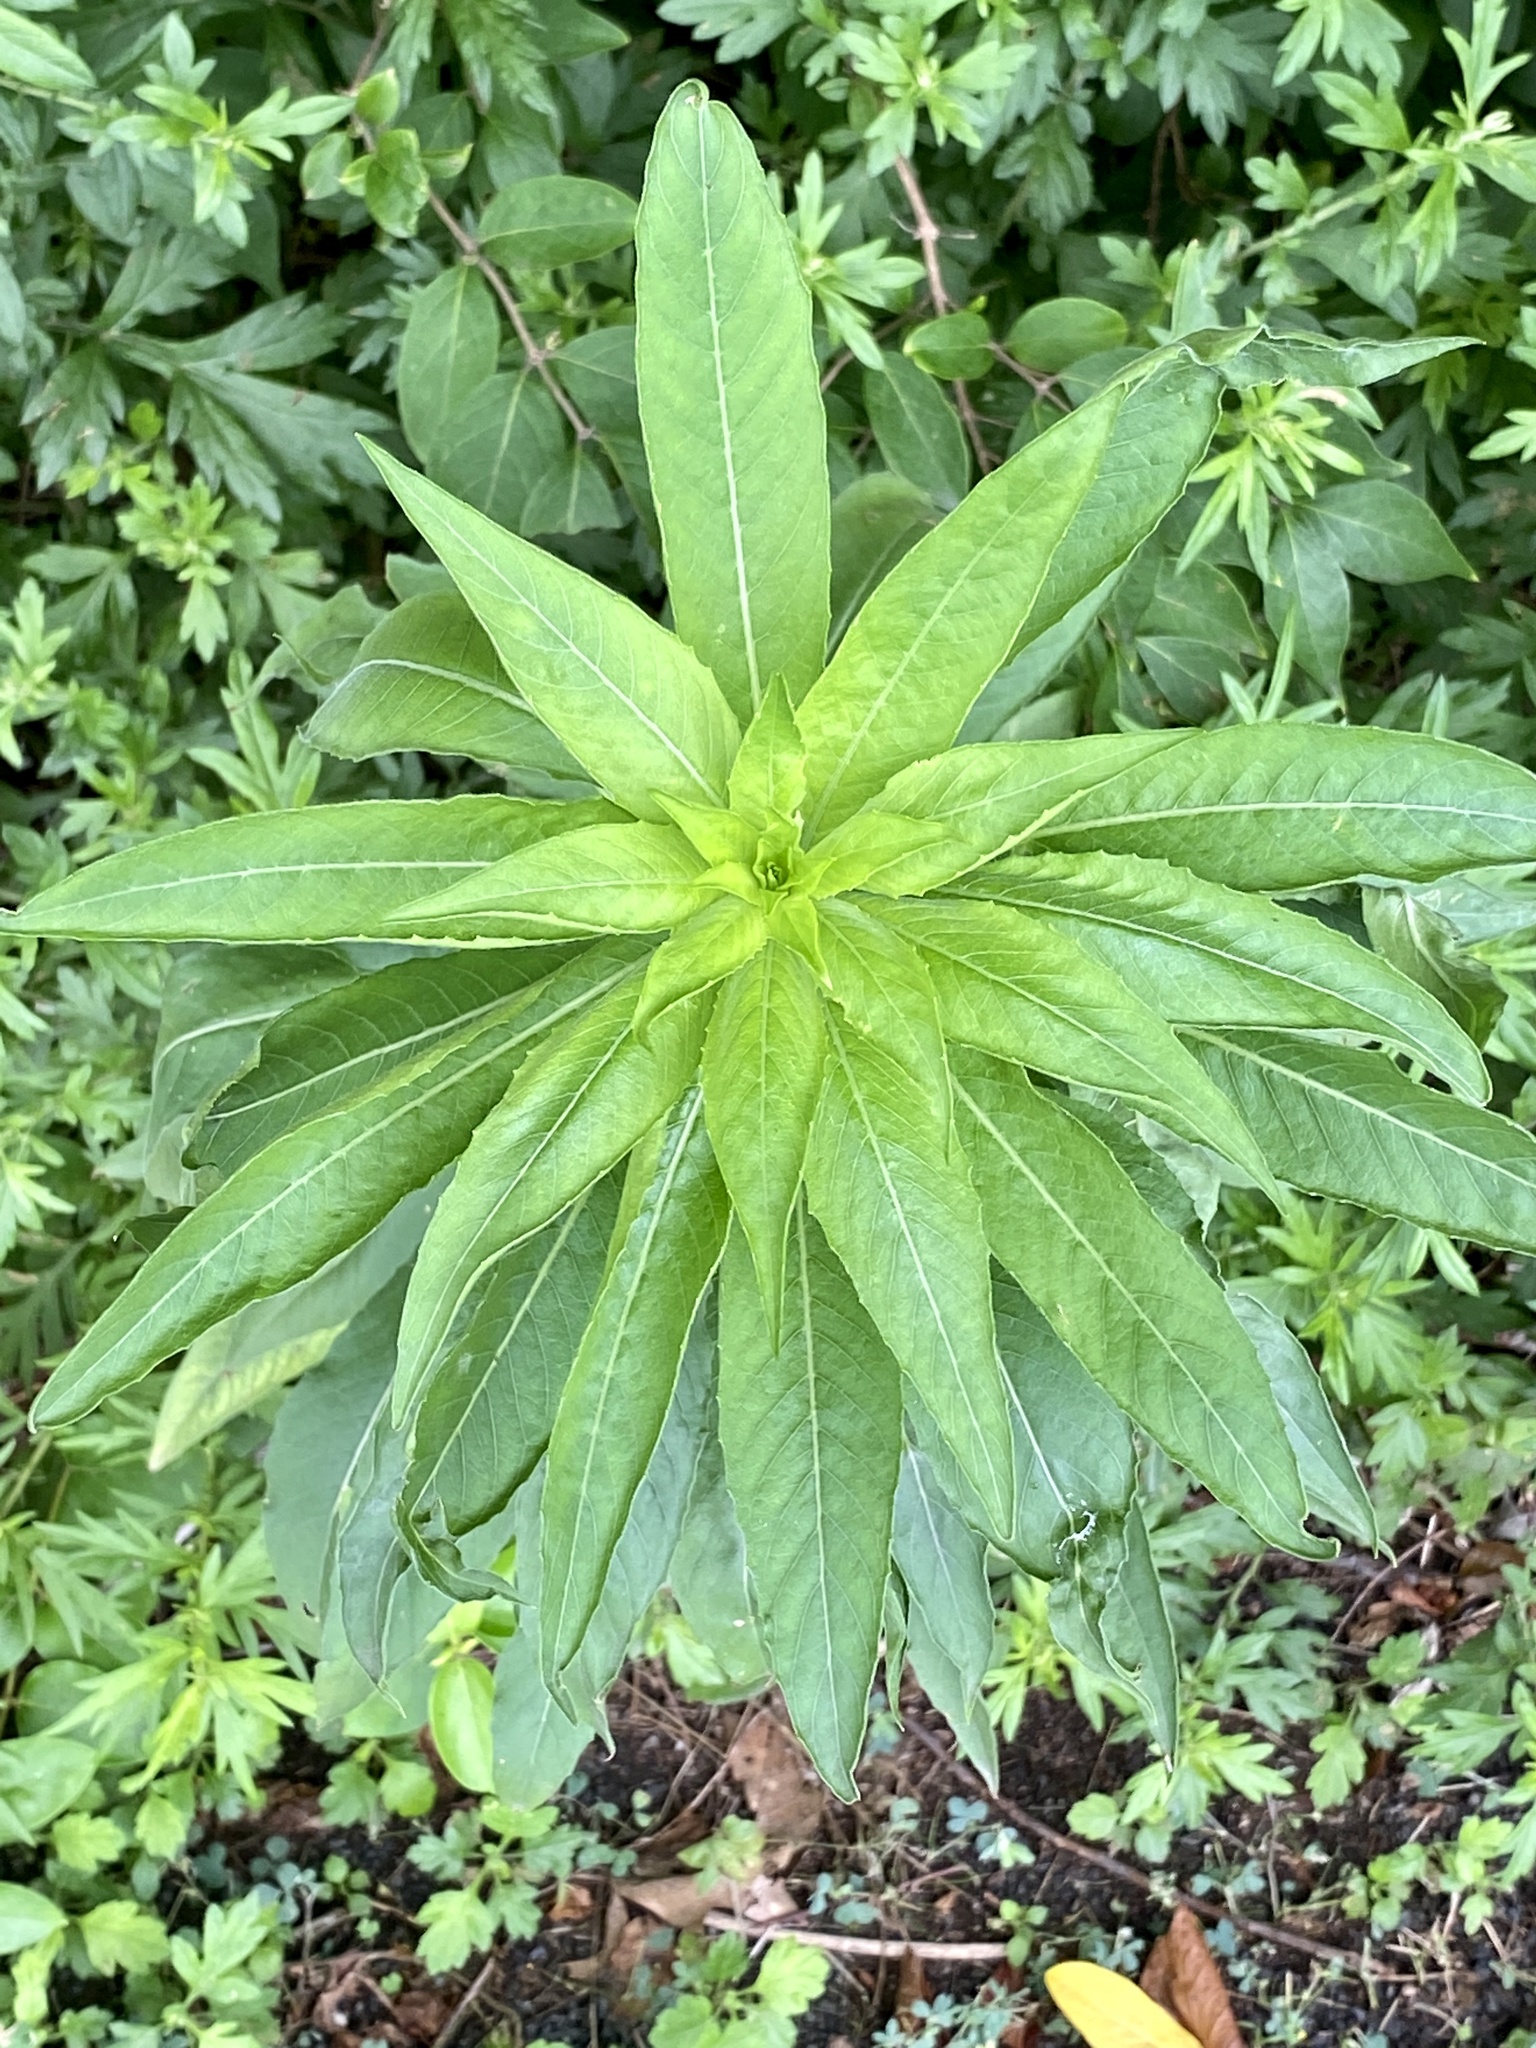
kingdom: Plantae
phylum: Tracheophyta
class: Magnoliopsida
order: Myrtales
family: Onagraceae
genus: Oenothera
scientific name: Oenothera biennis
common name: Common evening-primrose
